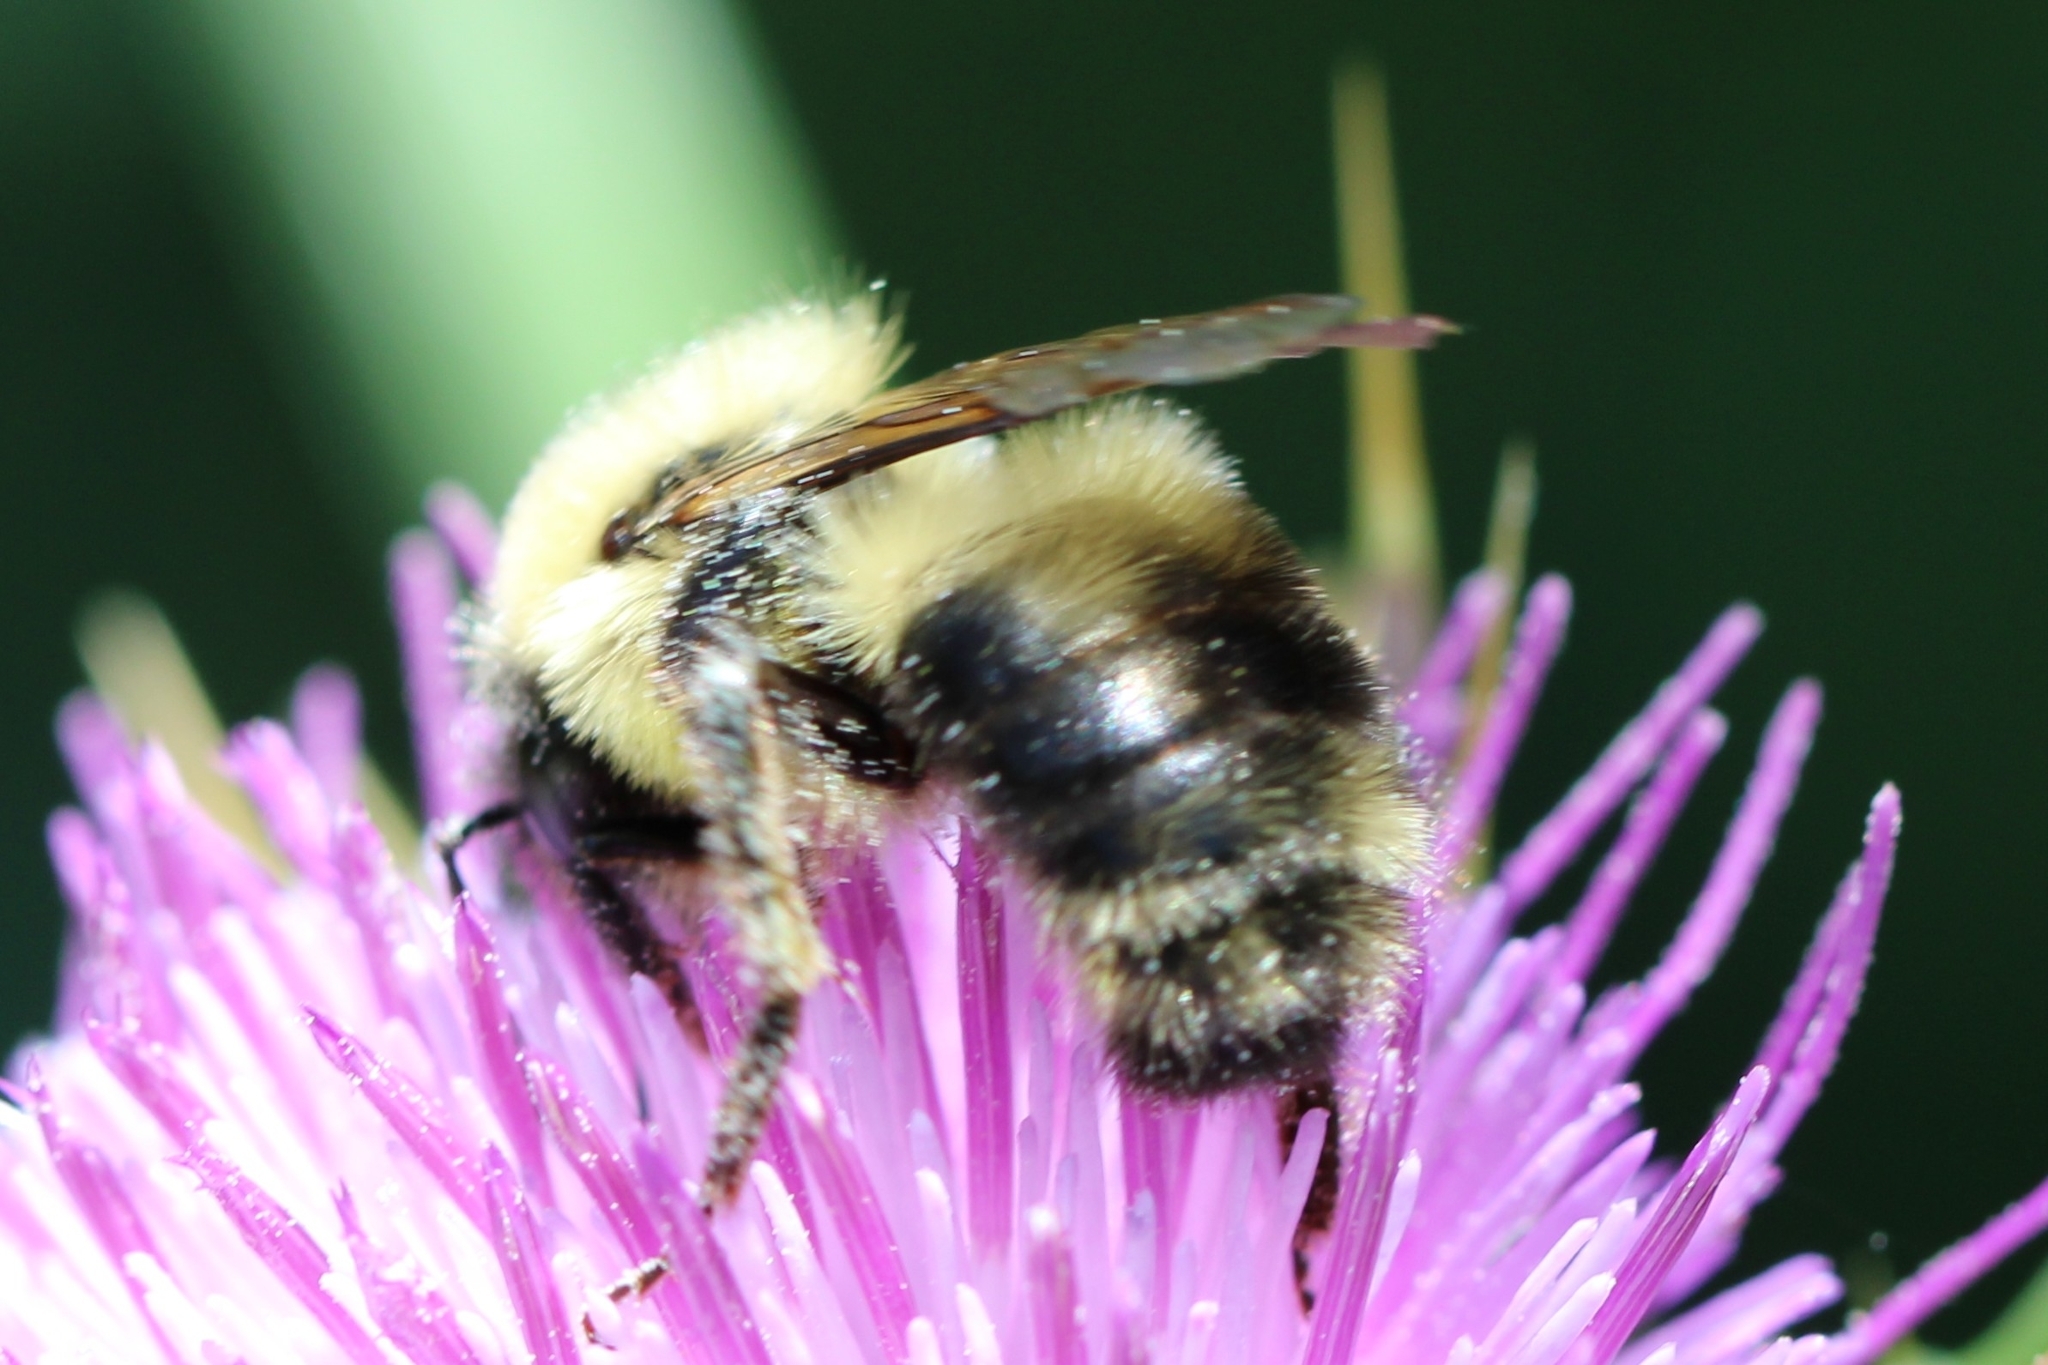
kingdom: Animalia
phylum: Arthropoda
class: Insecta
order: Hymenoptera
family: Apidae
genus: Bombus
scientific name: Bombus bimaculatus
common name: Two-spotted bumble bee
